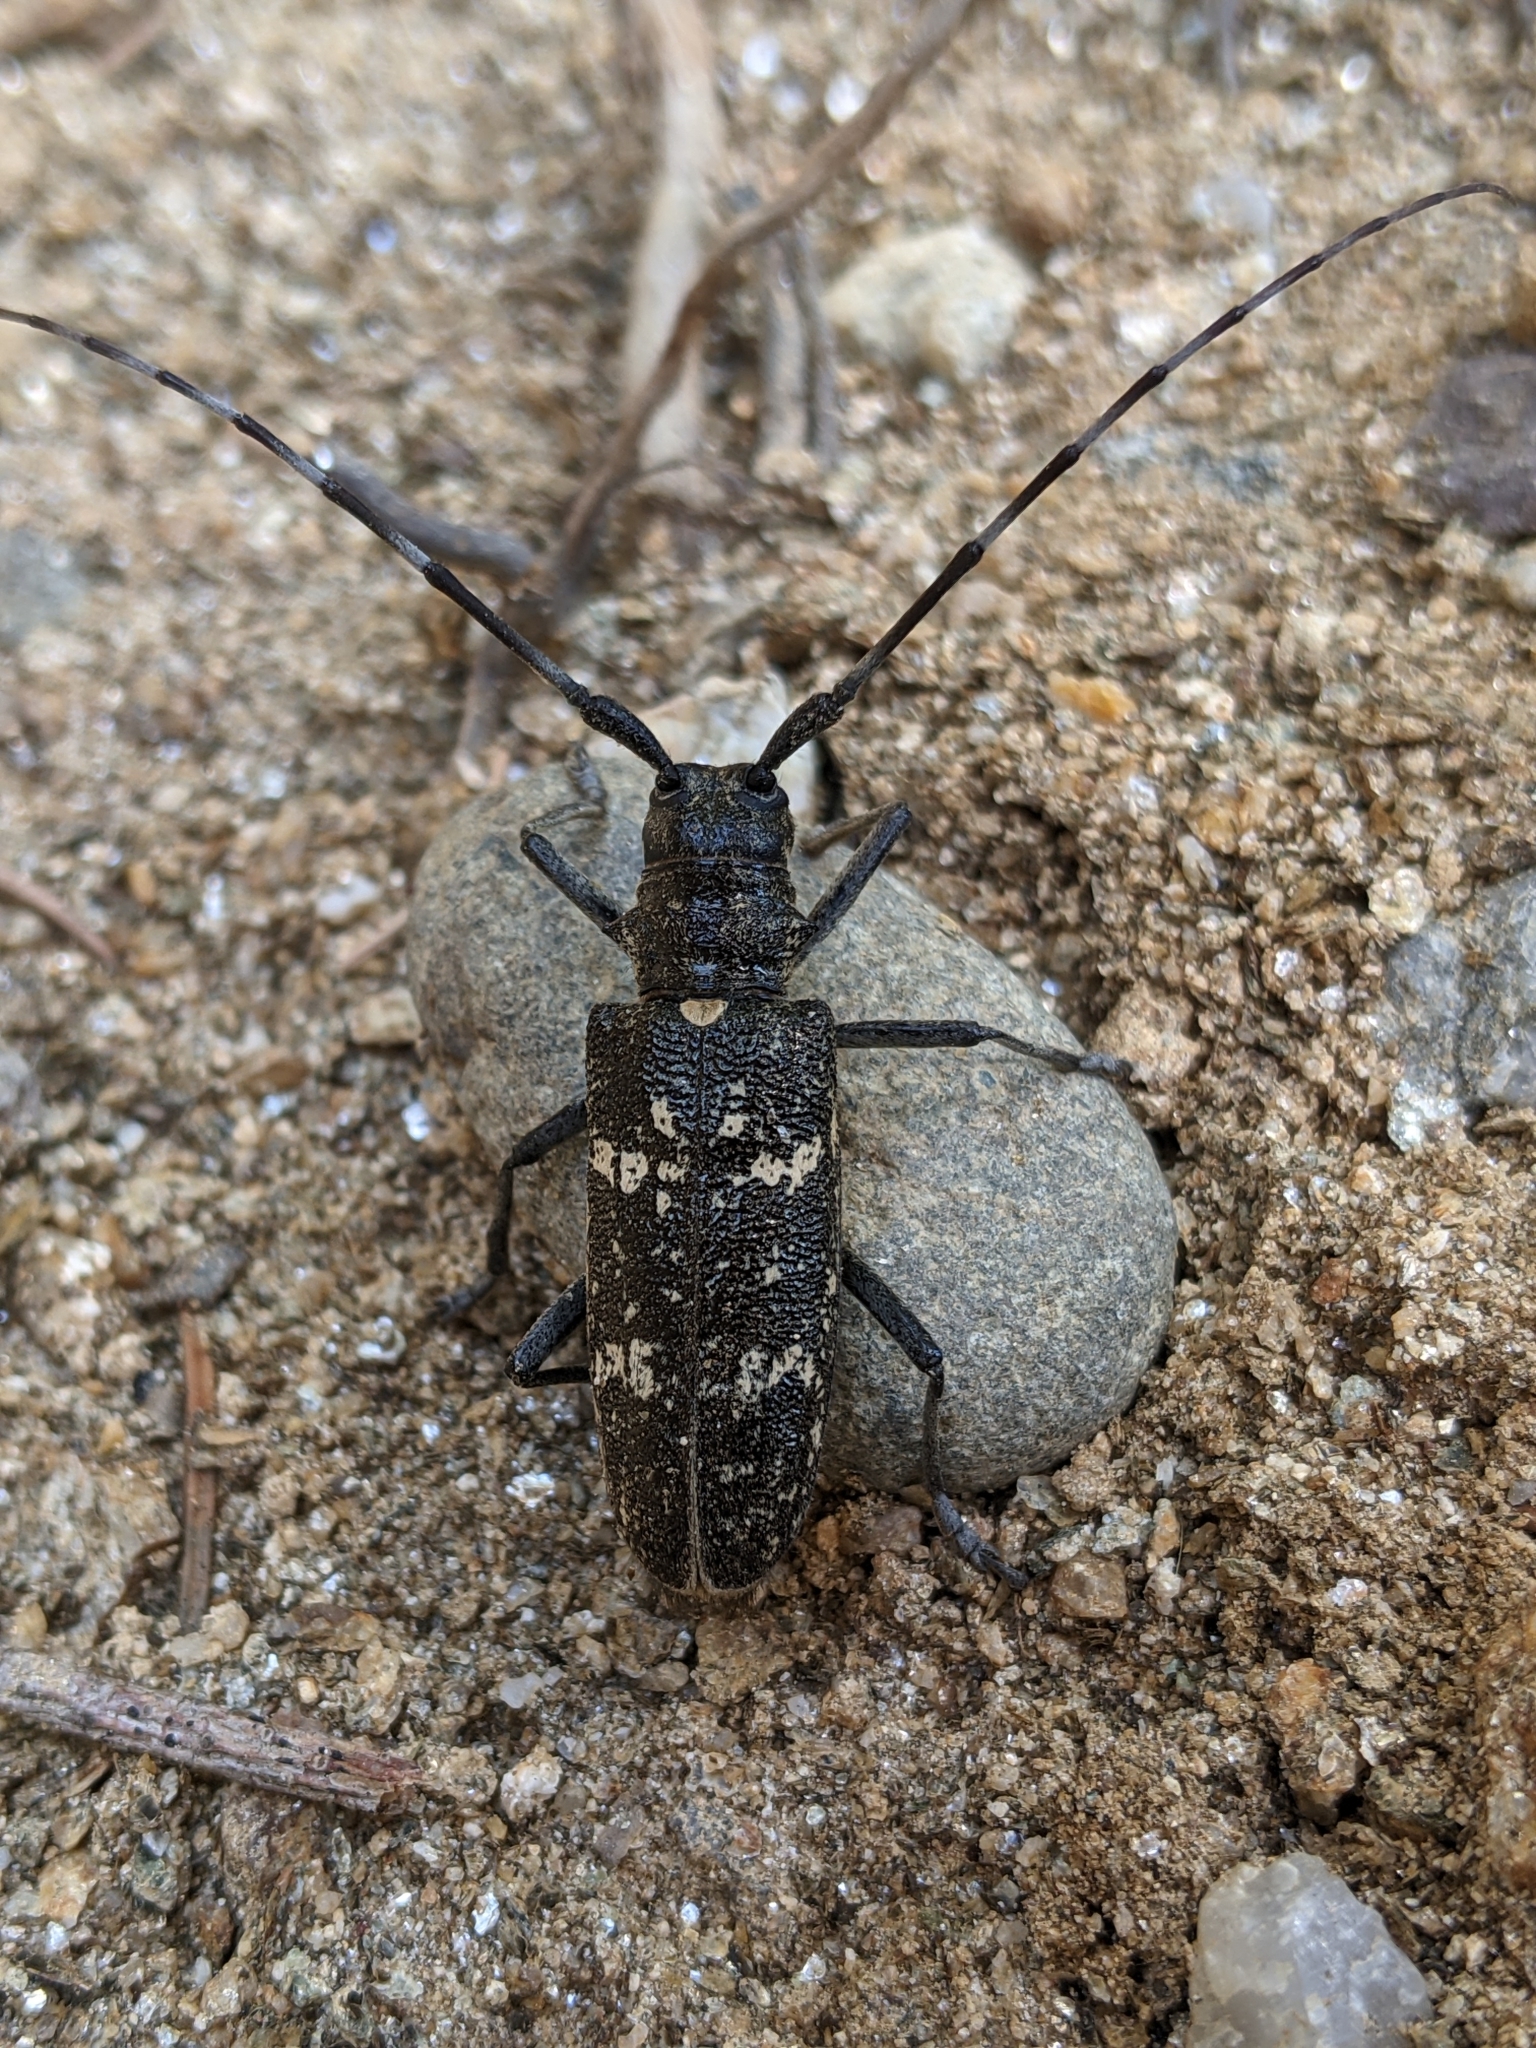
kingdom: Animalia
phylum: Arthropoda
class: Insecta
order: Coleoptera
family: Cerambycidae
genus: Monochamus
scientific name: Monochamus sartor
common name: Pine sawyer
